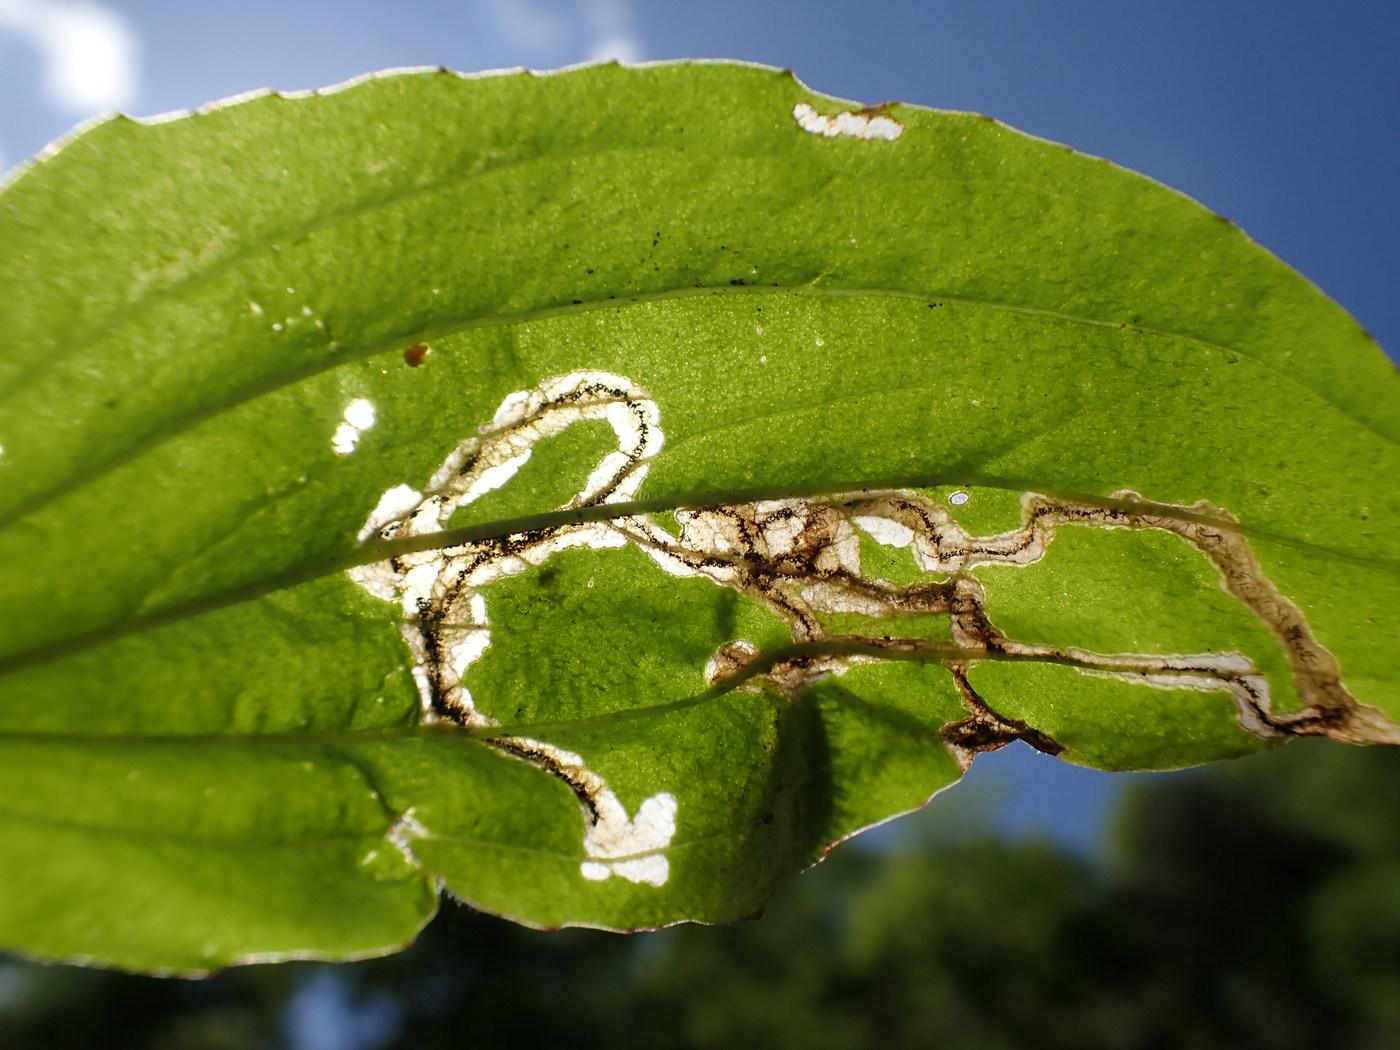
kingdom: Animalia
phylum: Arthropoda
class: Insecta
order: Coleoptera
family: Chrysomelidae
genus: Dibolia
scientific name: Dibolia borealis
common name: Northern plantain flea beetle
